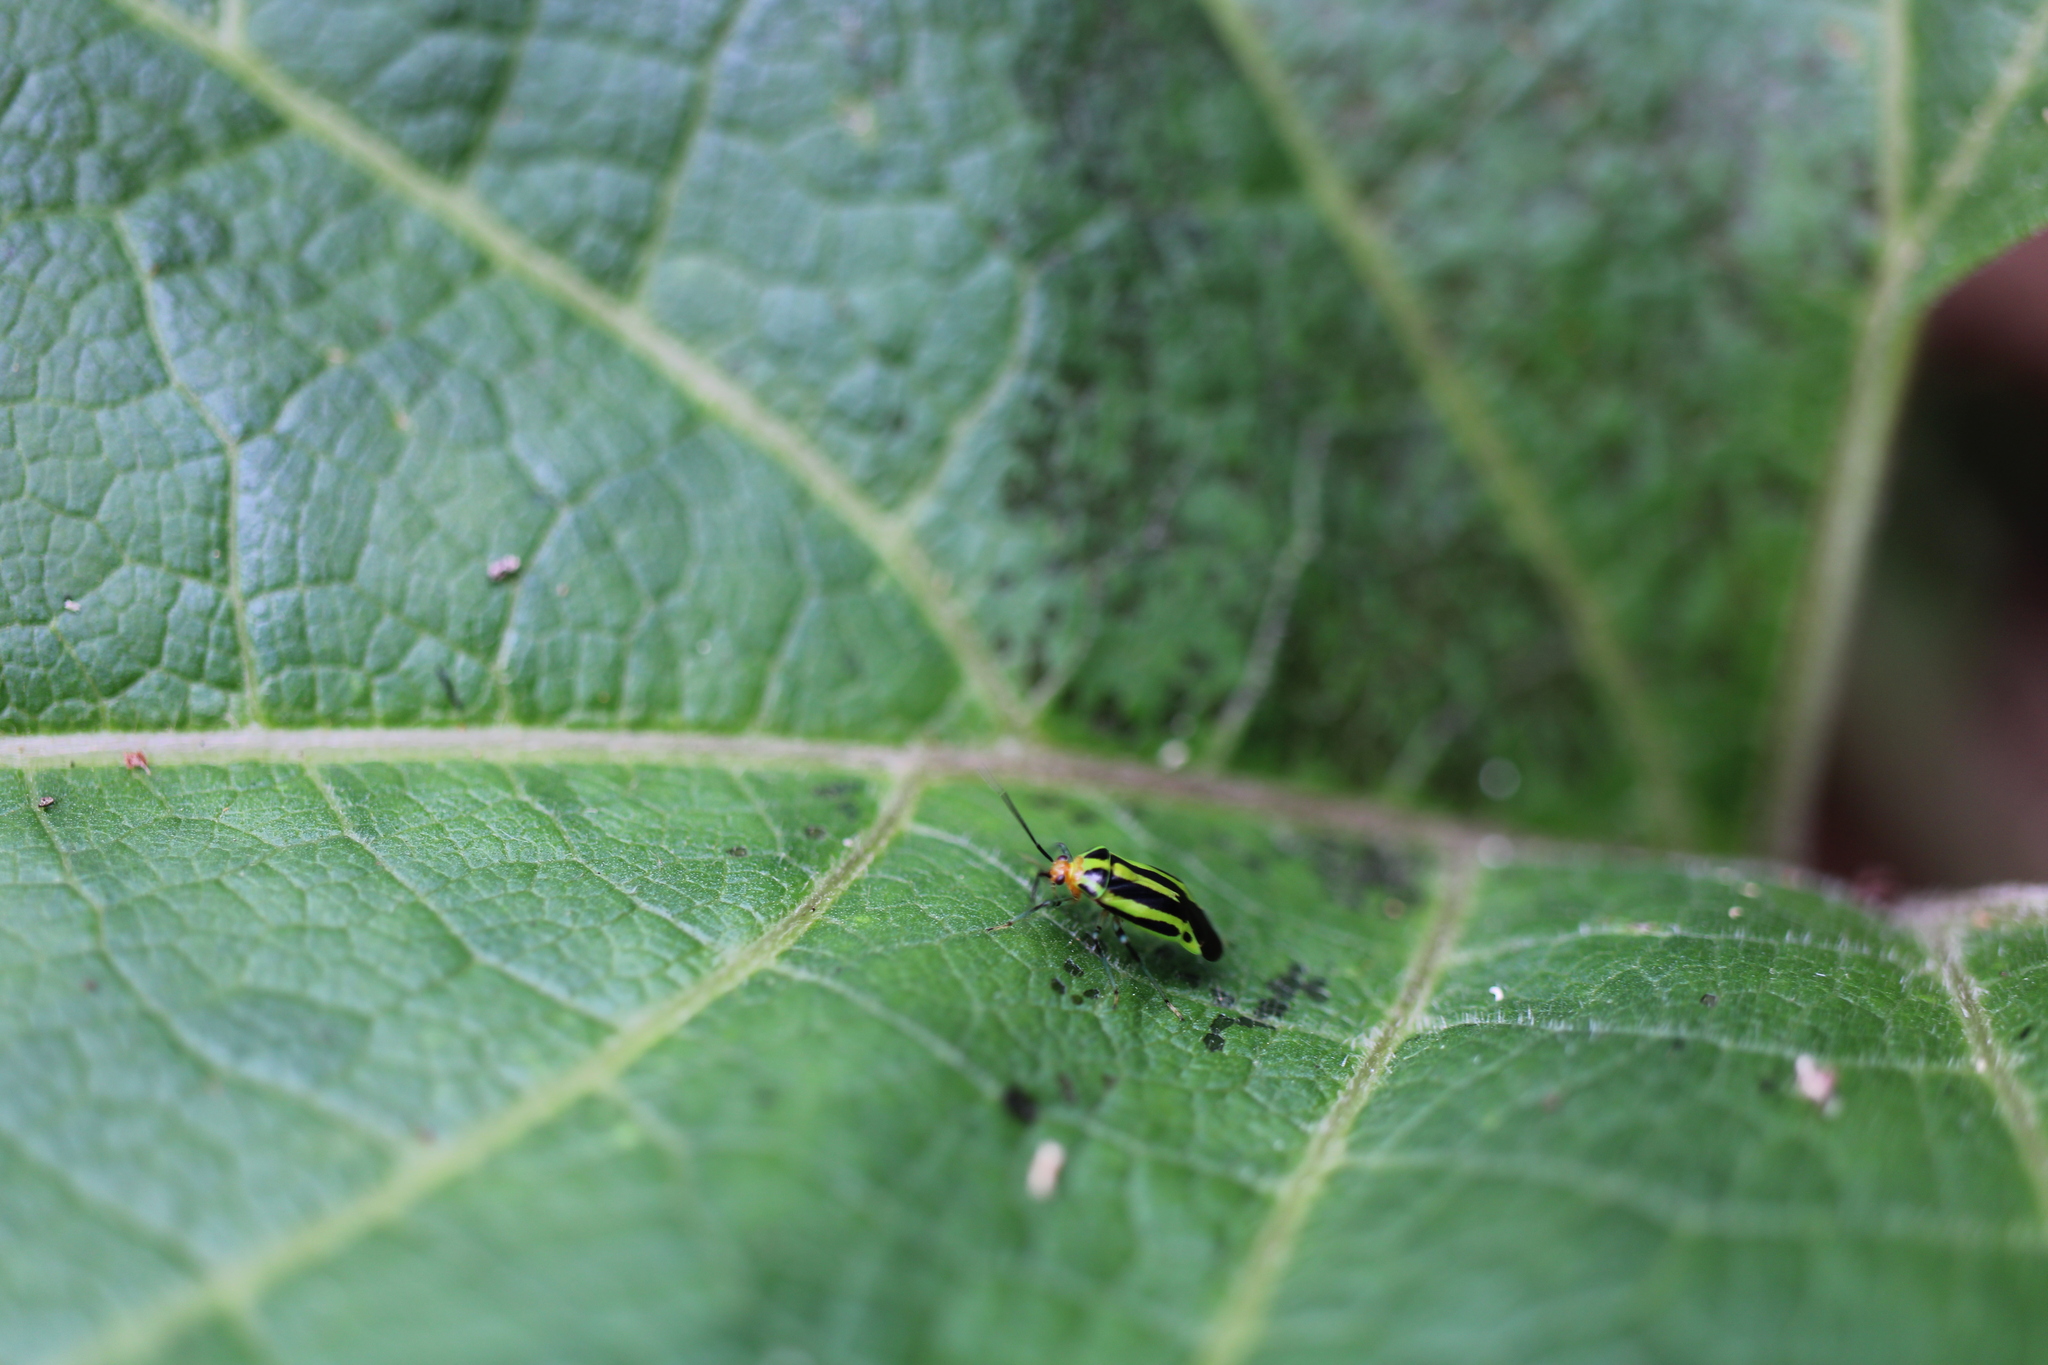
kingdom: Animalia
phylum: Arthropoda
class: Insecta
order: Hemiptera
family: Miridae
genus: Poecilocapsus
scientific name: Poecilocapsus lineatus
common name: Four-lined plant bug
